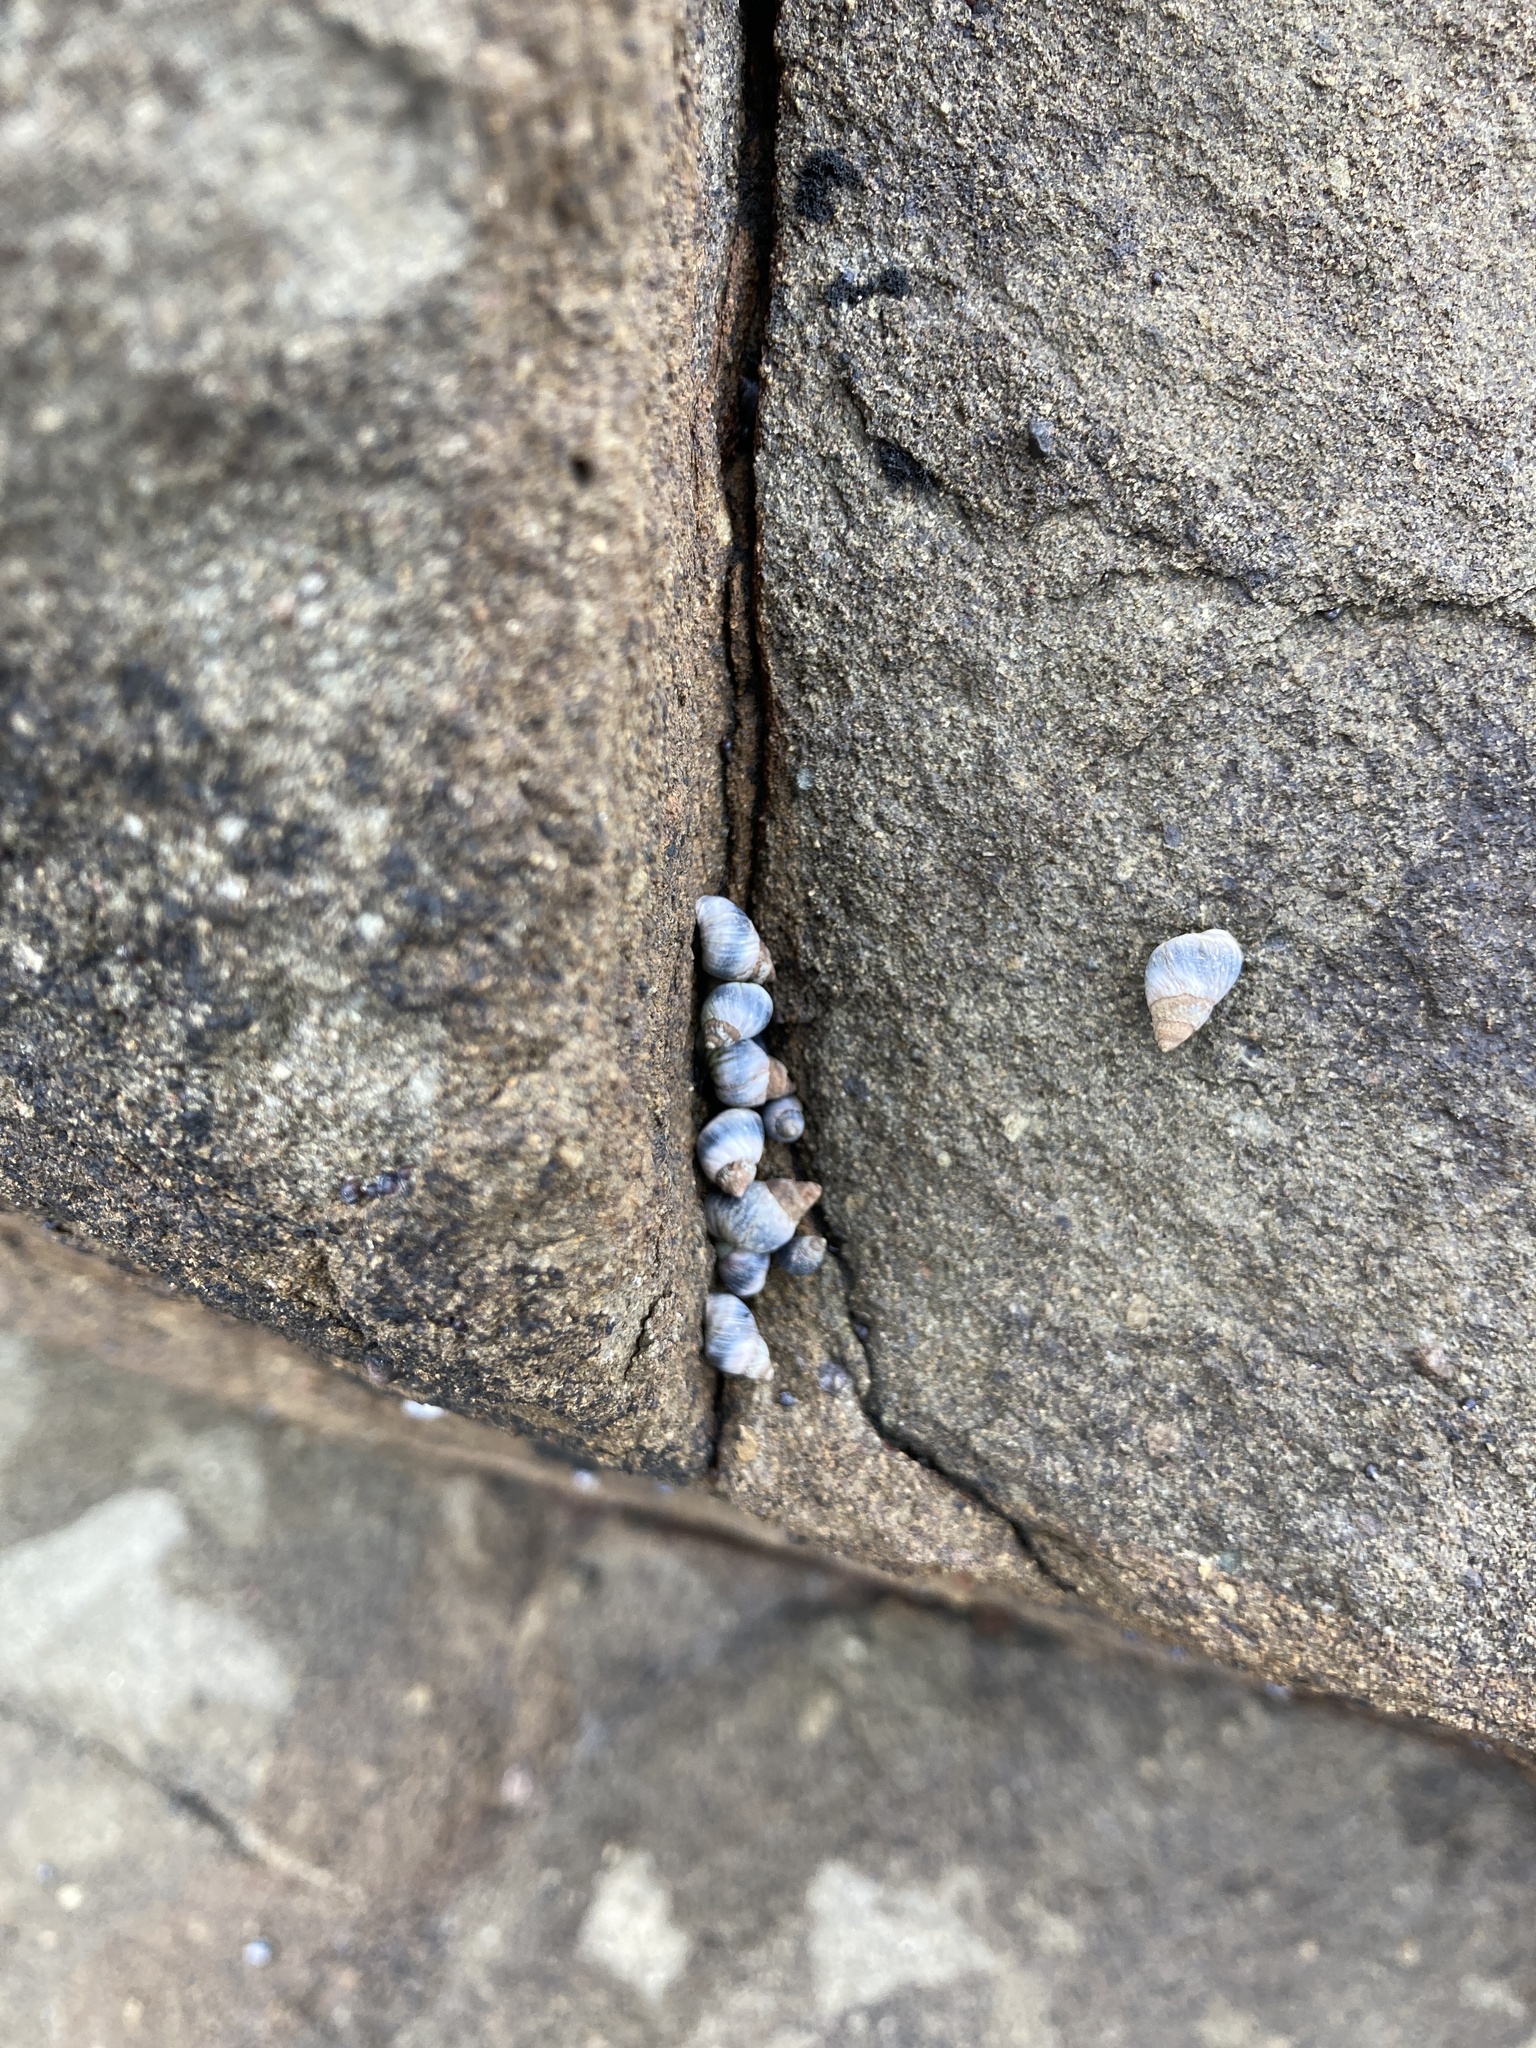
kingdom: Animalia
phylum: Mollusca
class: Gastropoda
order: Littorinimorpha
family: Littorinidae
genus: Austrolittorina
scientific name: Austrolittorina antipodum
